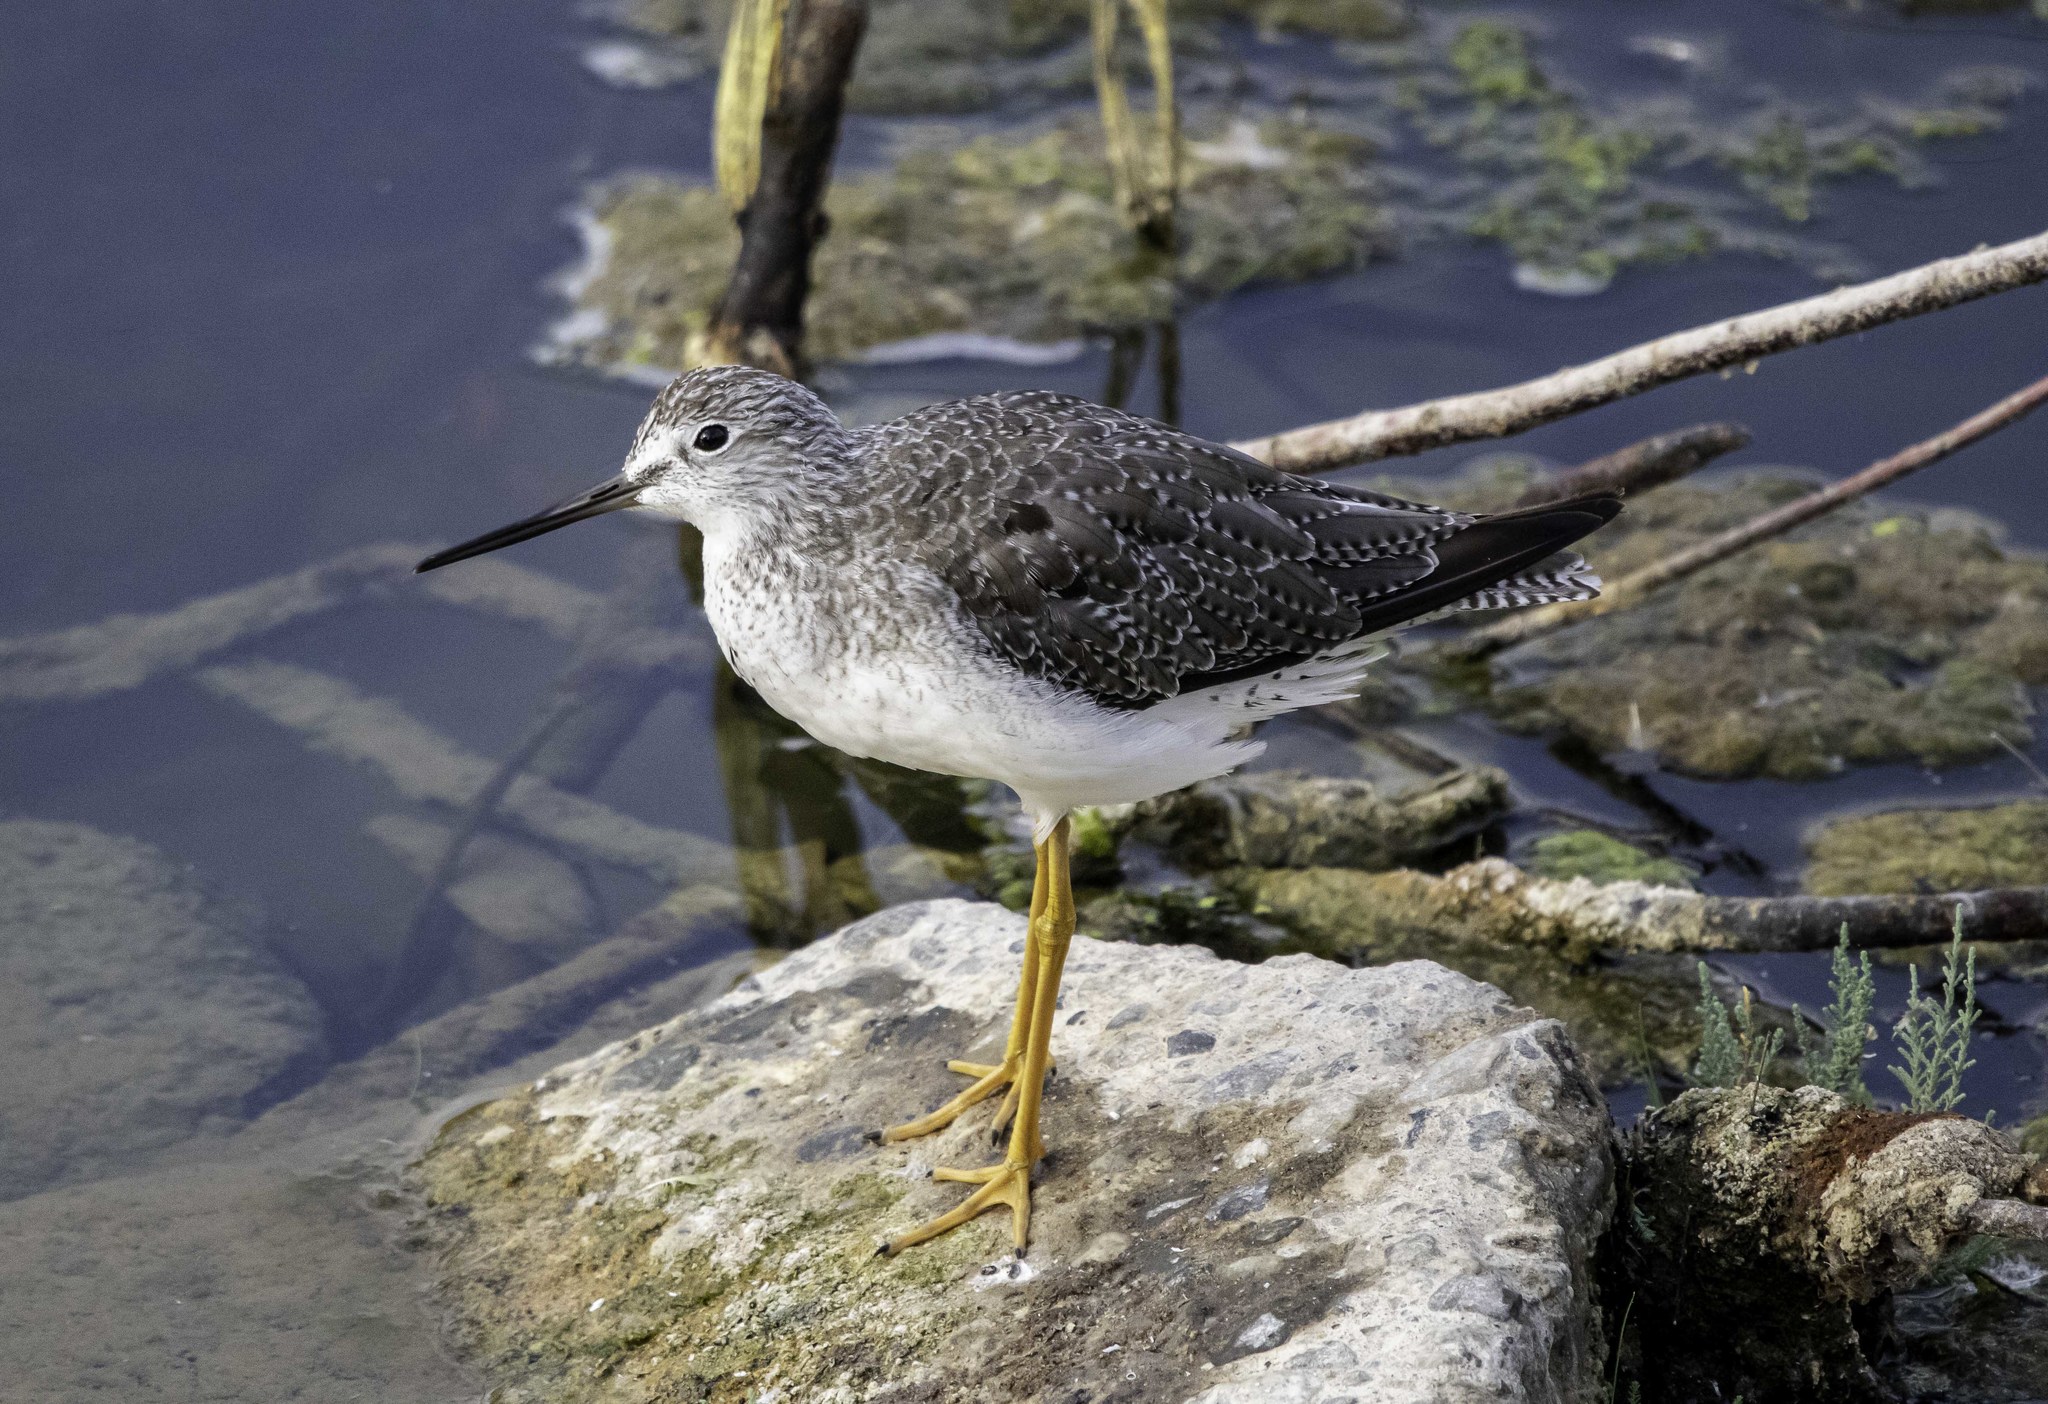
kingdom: Animalia
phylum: Chordata
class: Aves
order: Charadriiformes
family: Scolopacidae
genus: Tringa
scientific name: Tringa melanoleuca
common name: Greater yellowlegs
